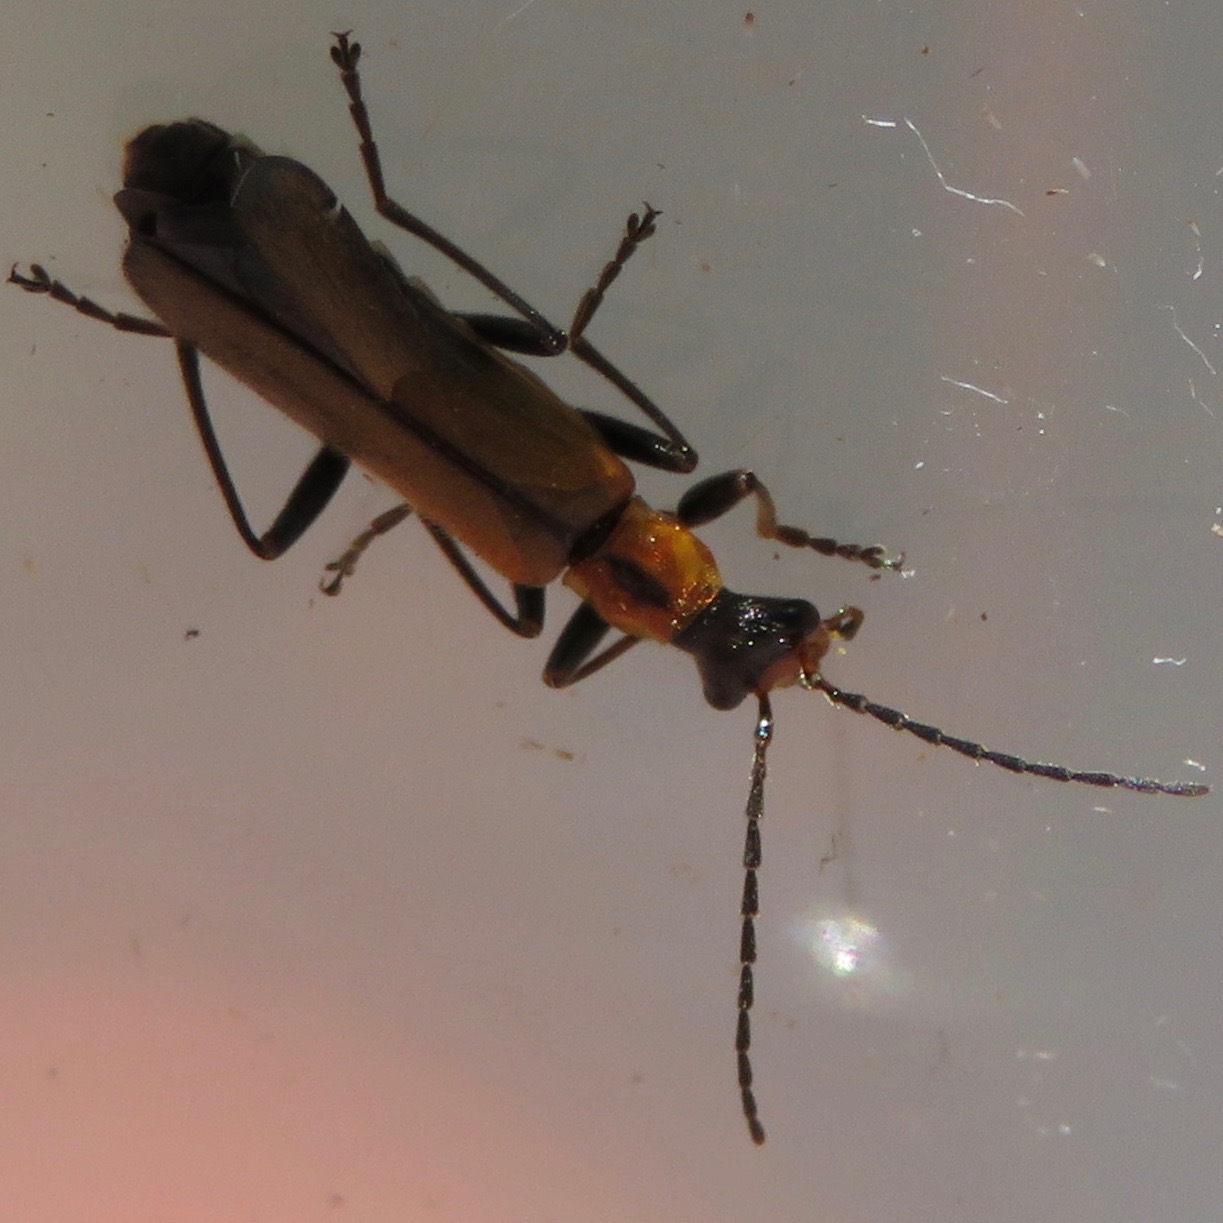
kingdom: Animalia
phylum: Arthropoda
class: Insecta
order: Coleoptera
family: Cantharidae
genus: Dichelotarsus
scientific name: Dichelotarsus cavicollis
